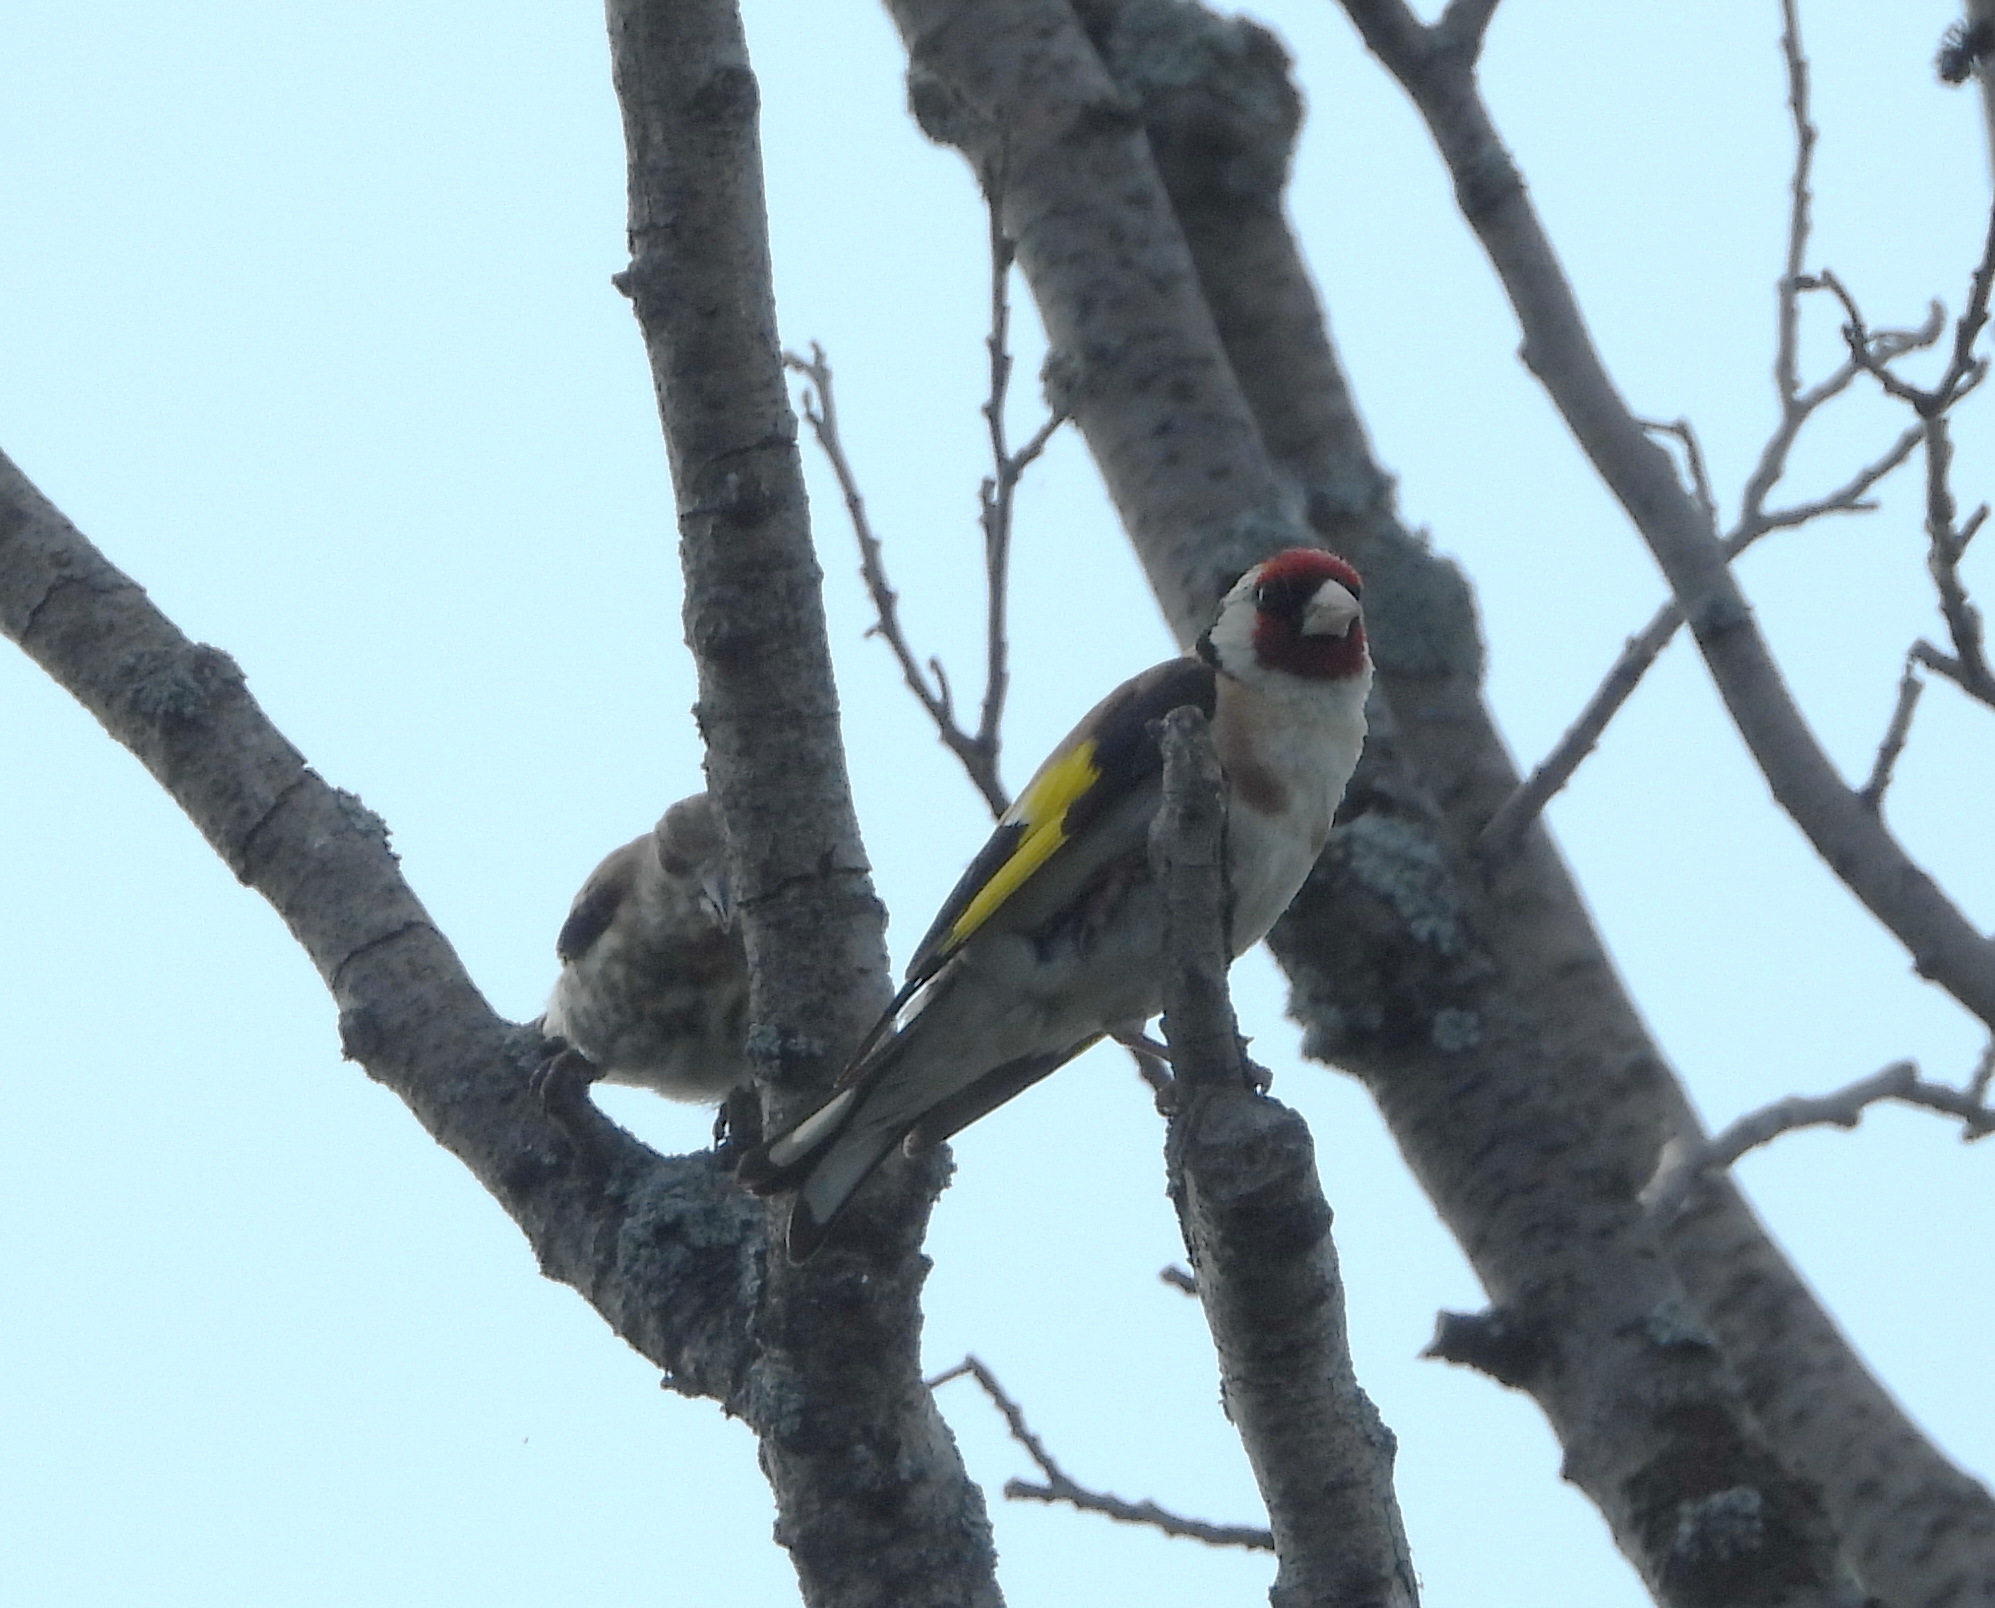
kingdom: Animalia
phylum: Chordata
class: Aves
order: Passeriformes
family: Fringillidae
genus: Carduelis
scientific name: Carduelis carduelis
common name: European goldfinch
